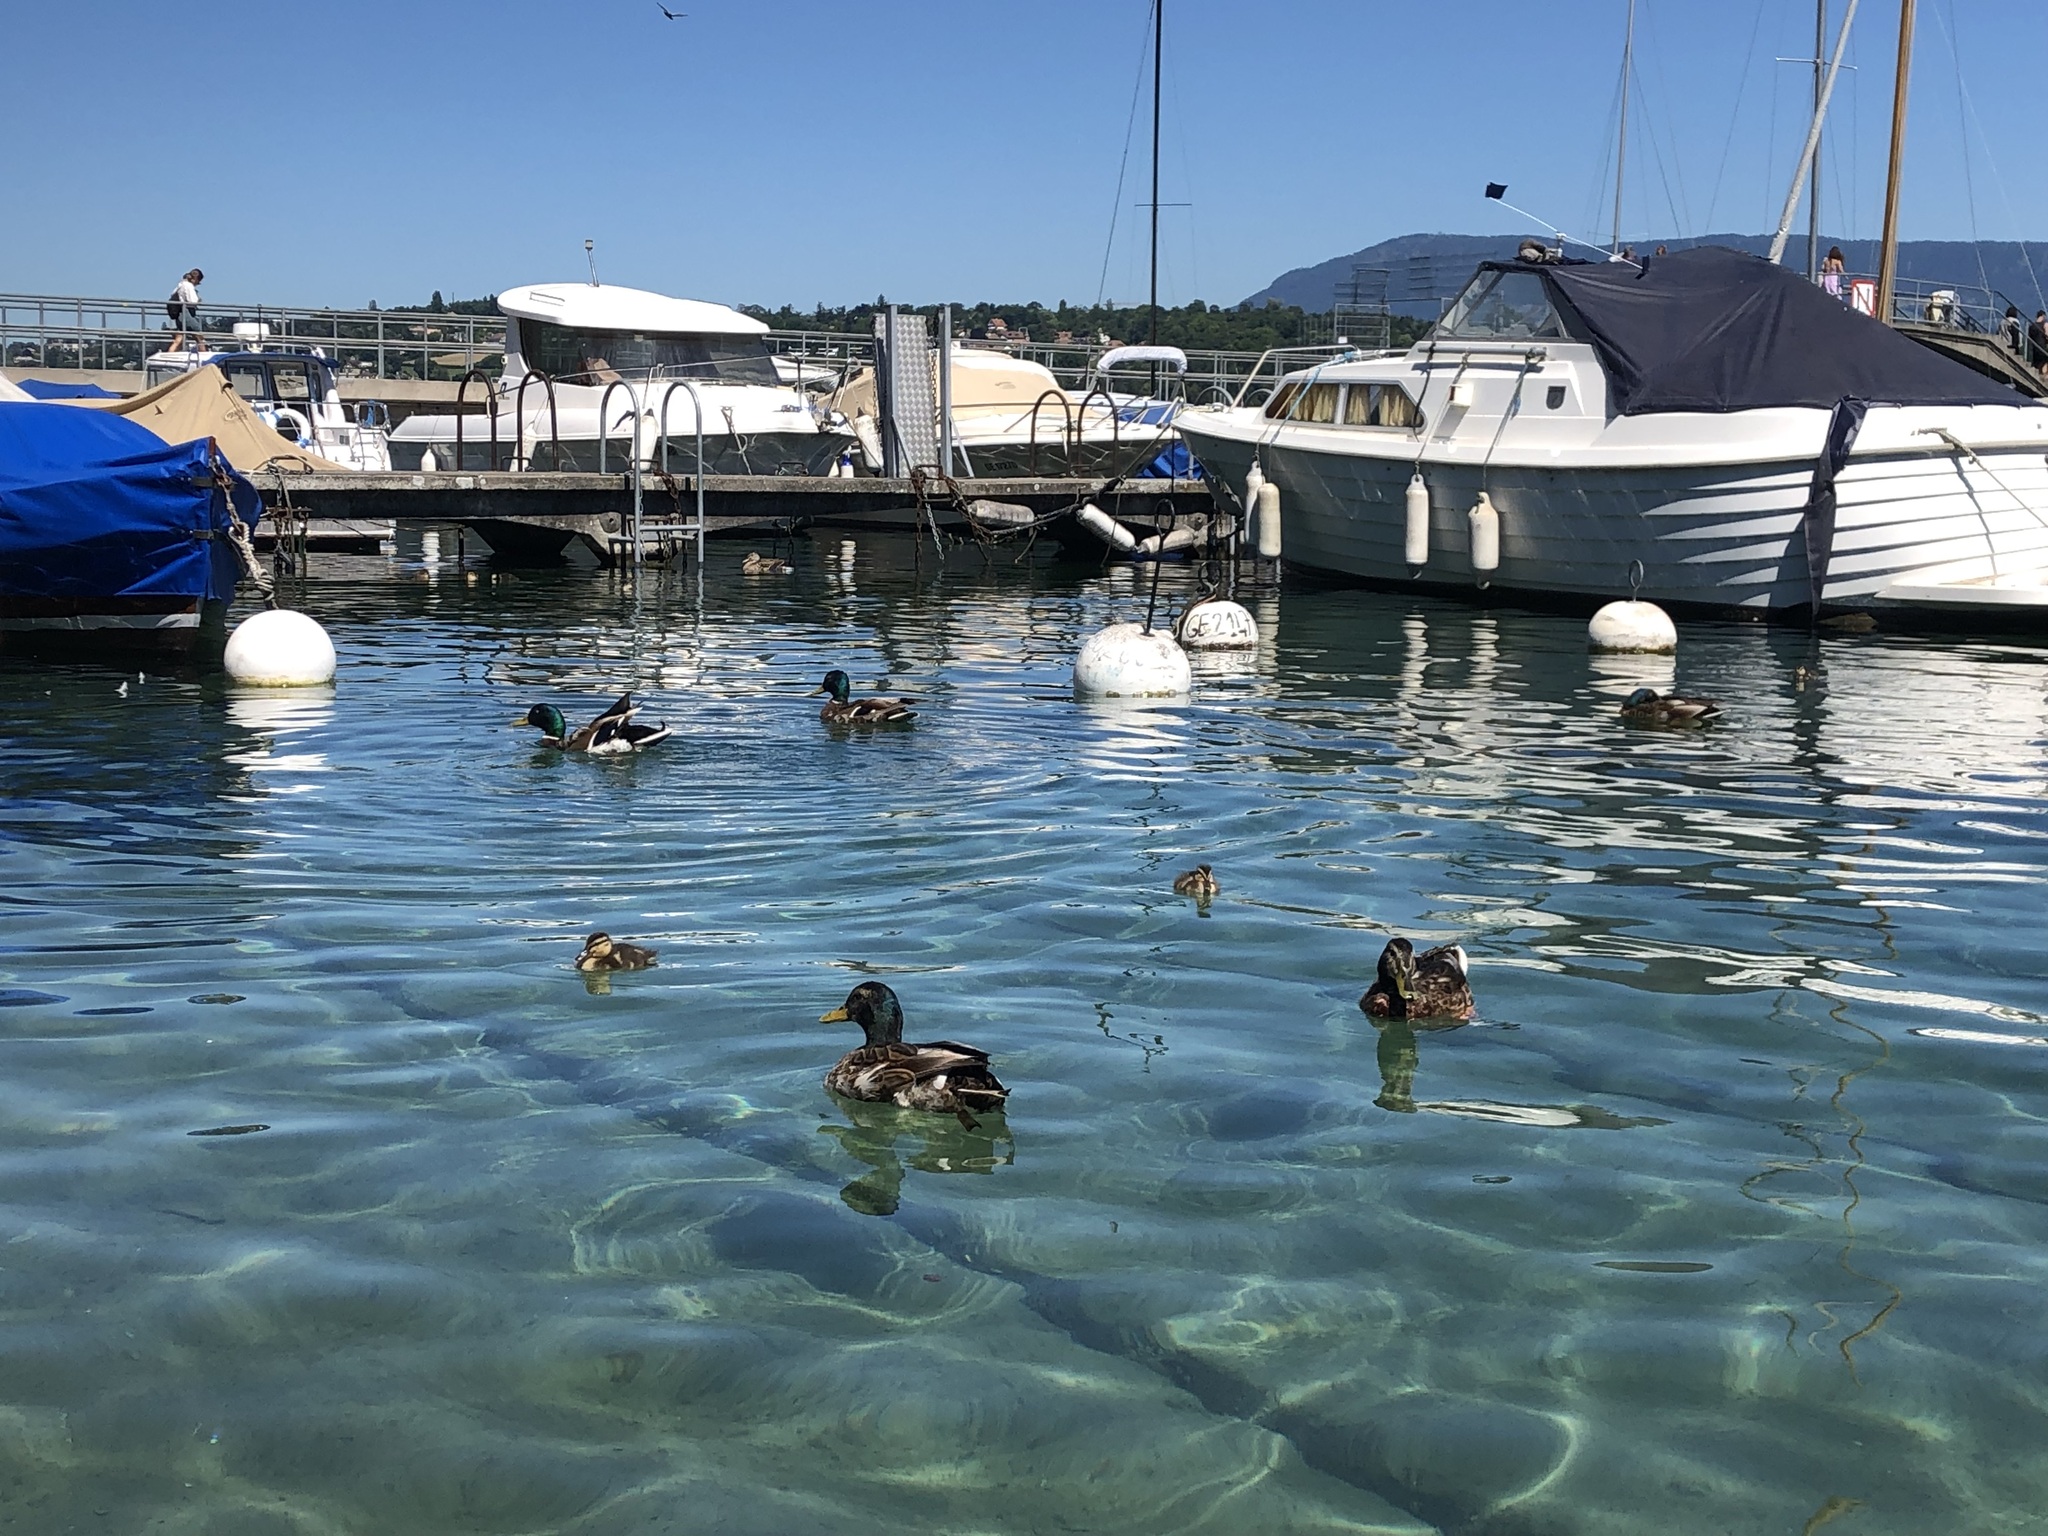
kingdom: Animalia
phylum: Chordata
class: Aves
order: Anseriformes
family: Anatidae
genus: Anas
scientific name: Anas platyrhynchos
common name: Mallard
